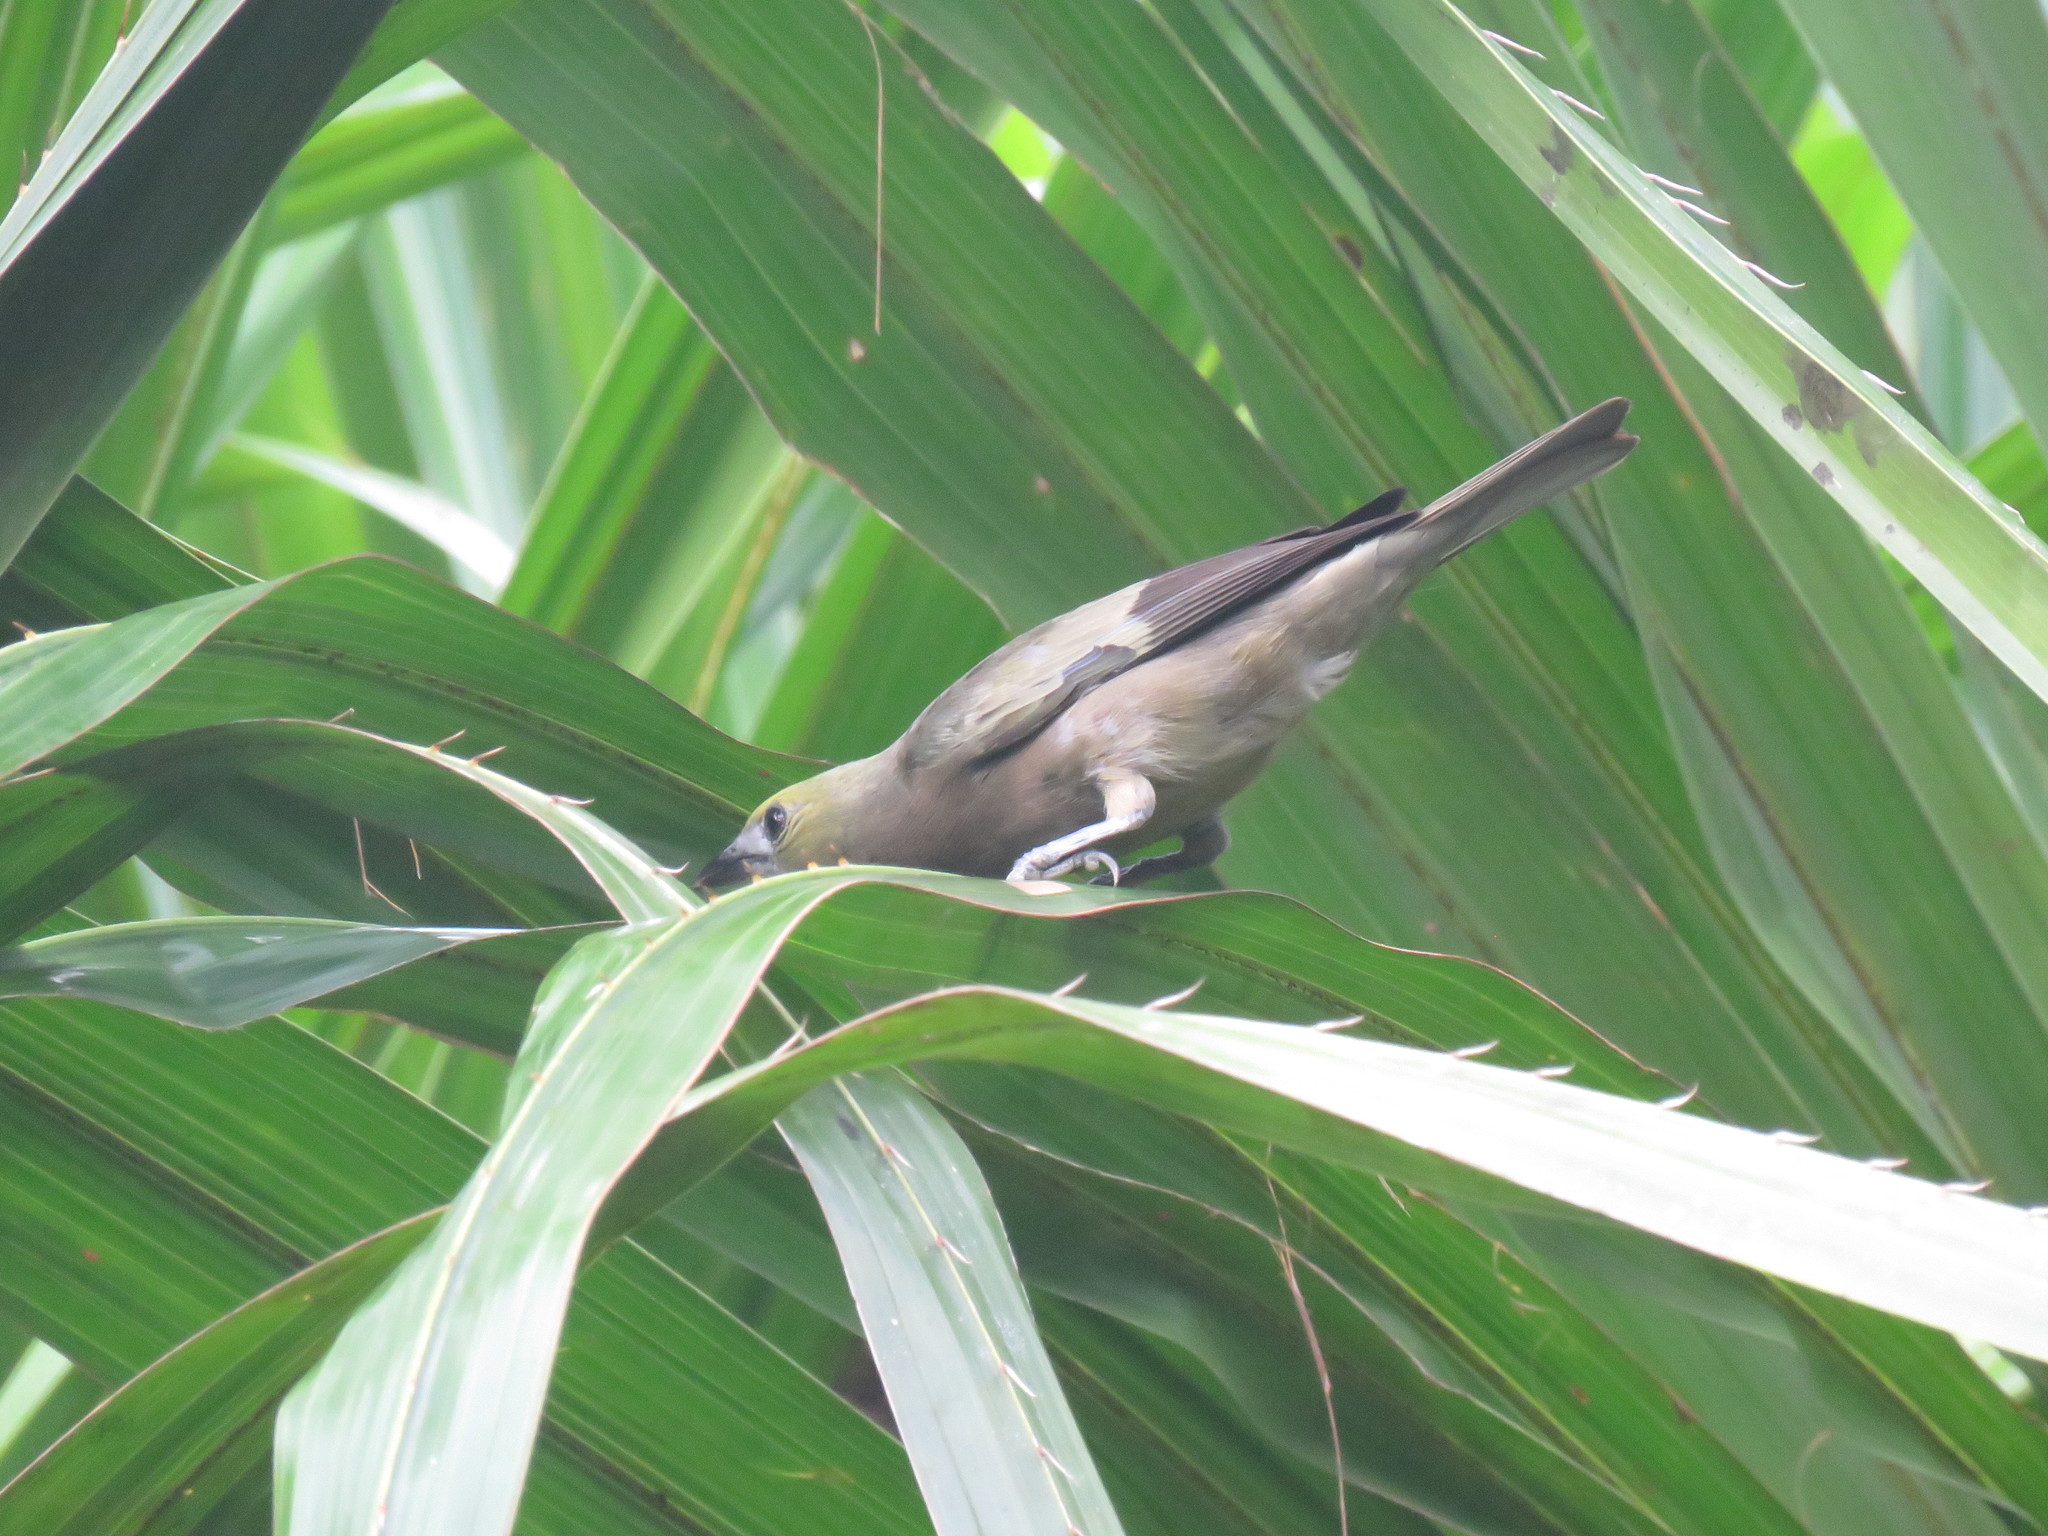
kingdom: Animalia
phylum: Chordata
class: Aves
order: Passeriformes
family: Thraupidae
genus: Thraupis
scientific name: Thraupis palmarum
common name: Palm tanager
